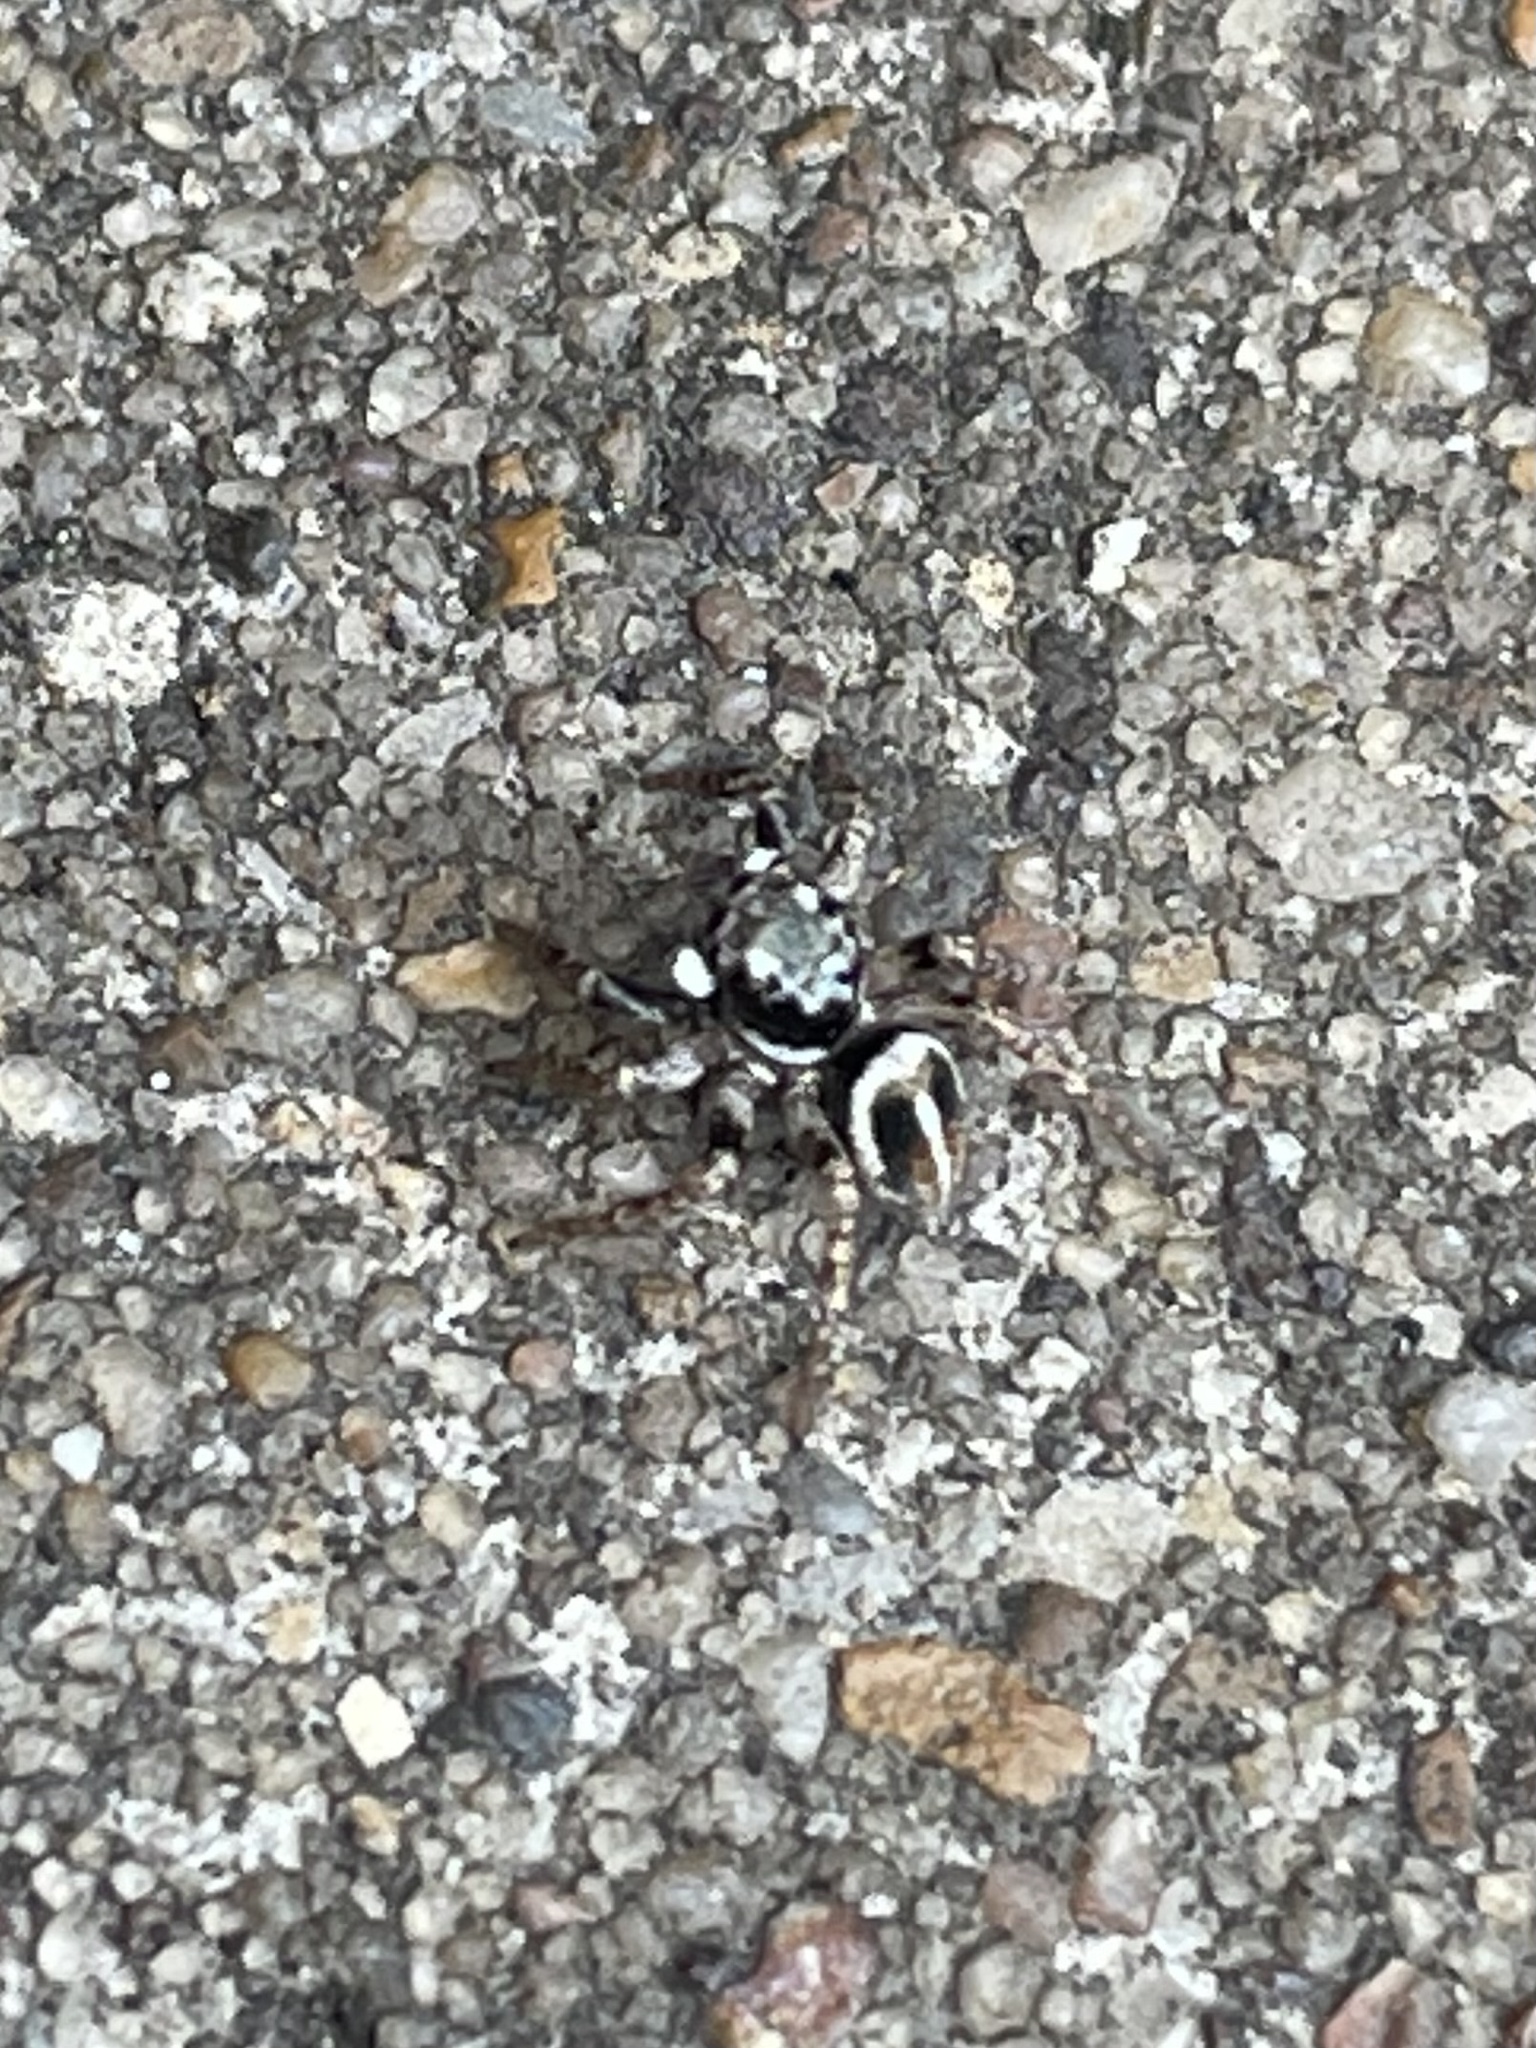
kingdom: Animalia
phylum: Arthropoda
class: Arachnida
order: Araneae
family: Salticidae
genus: Anasaitis
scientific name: Anasaitis canosa
